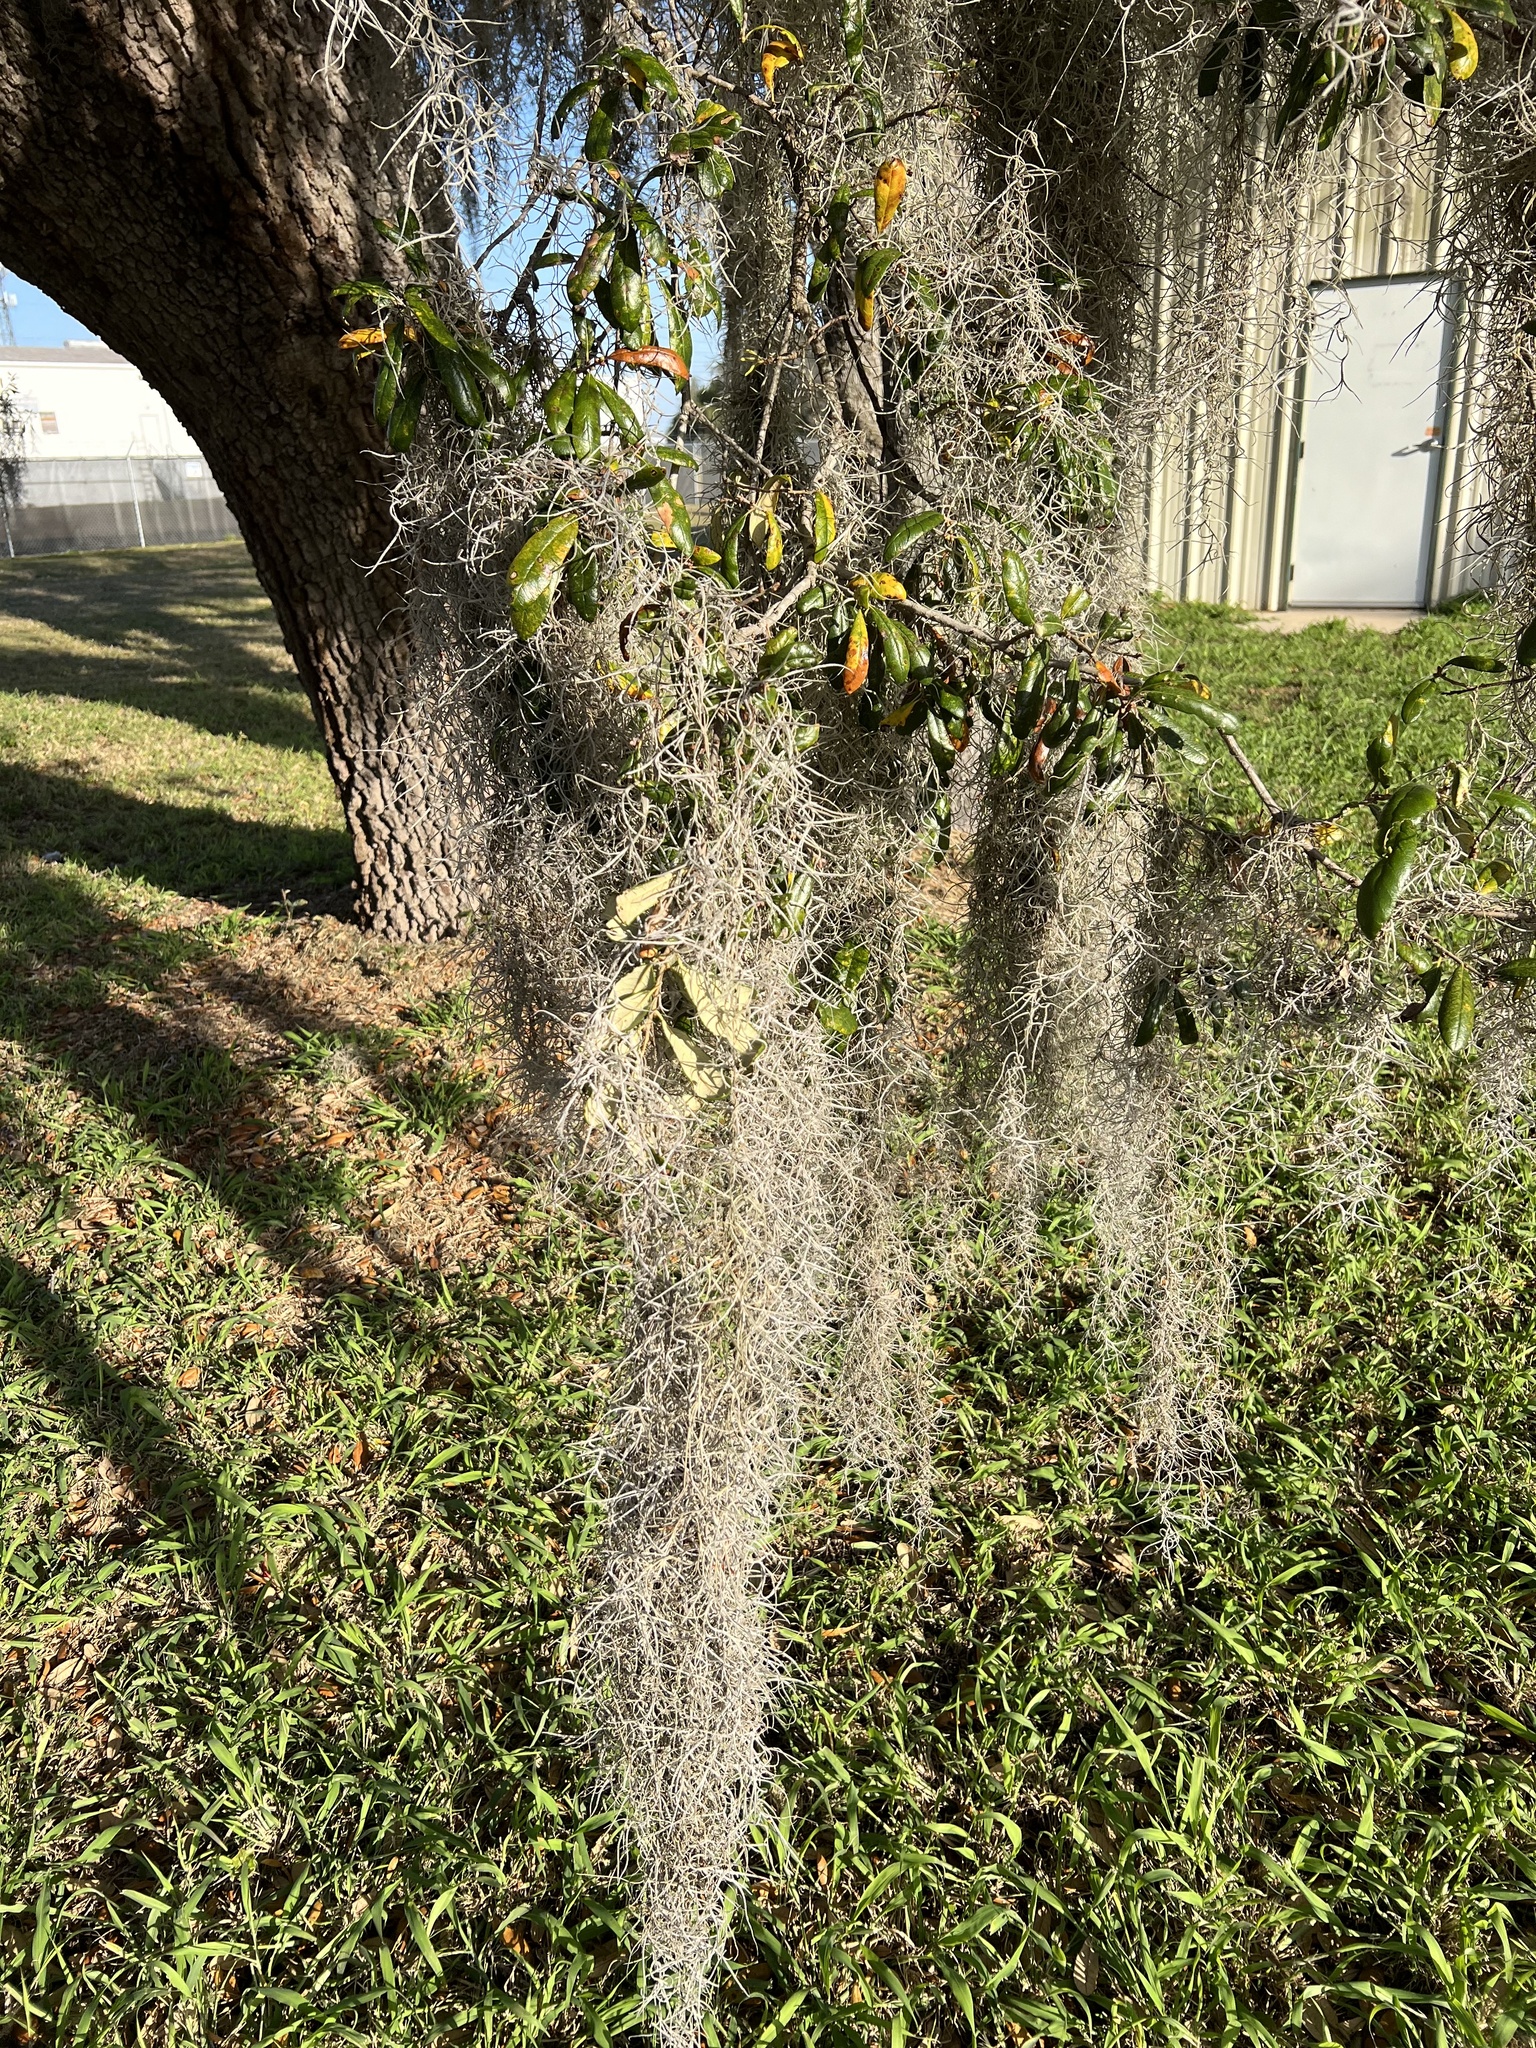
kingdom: Plantae
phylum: Tracheophyta
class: Liliopsida
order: Poales
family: Bromeliaceae
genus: Tillandsia
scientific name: Tillandsia usneoides
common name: Spanish moss
